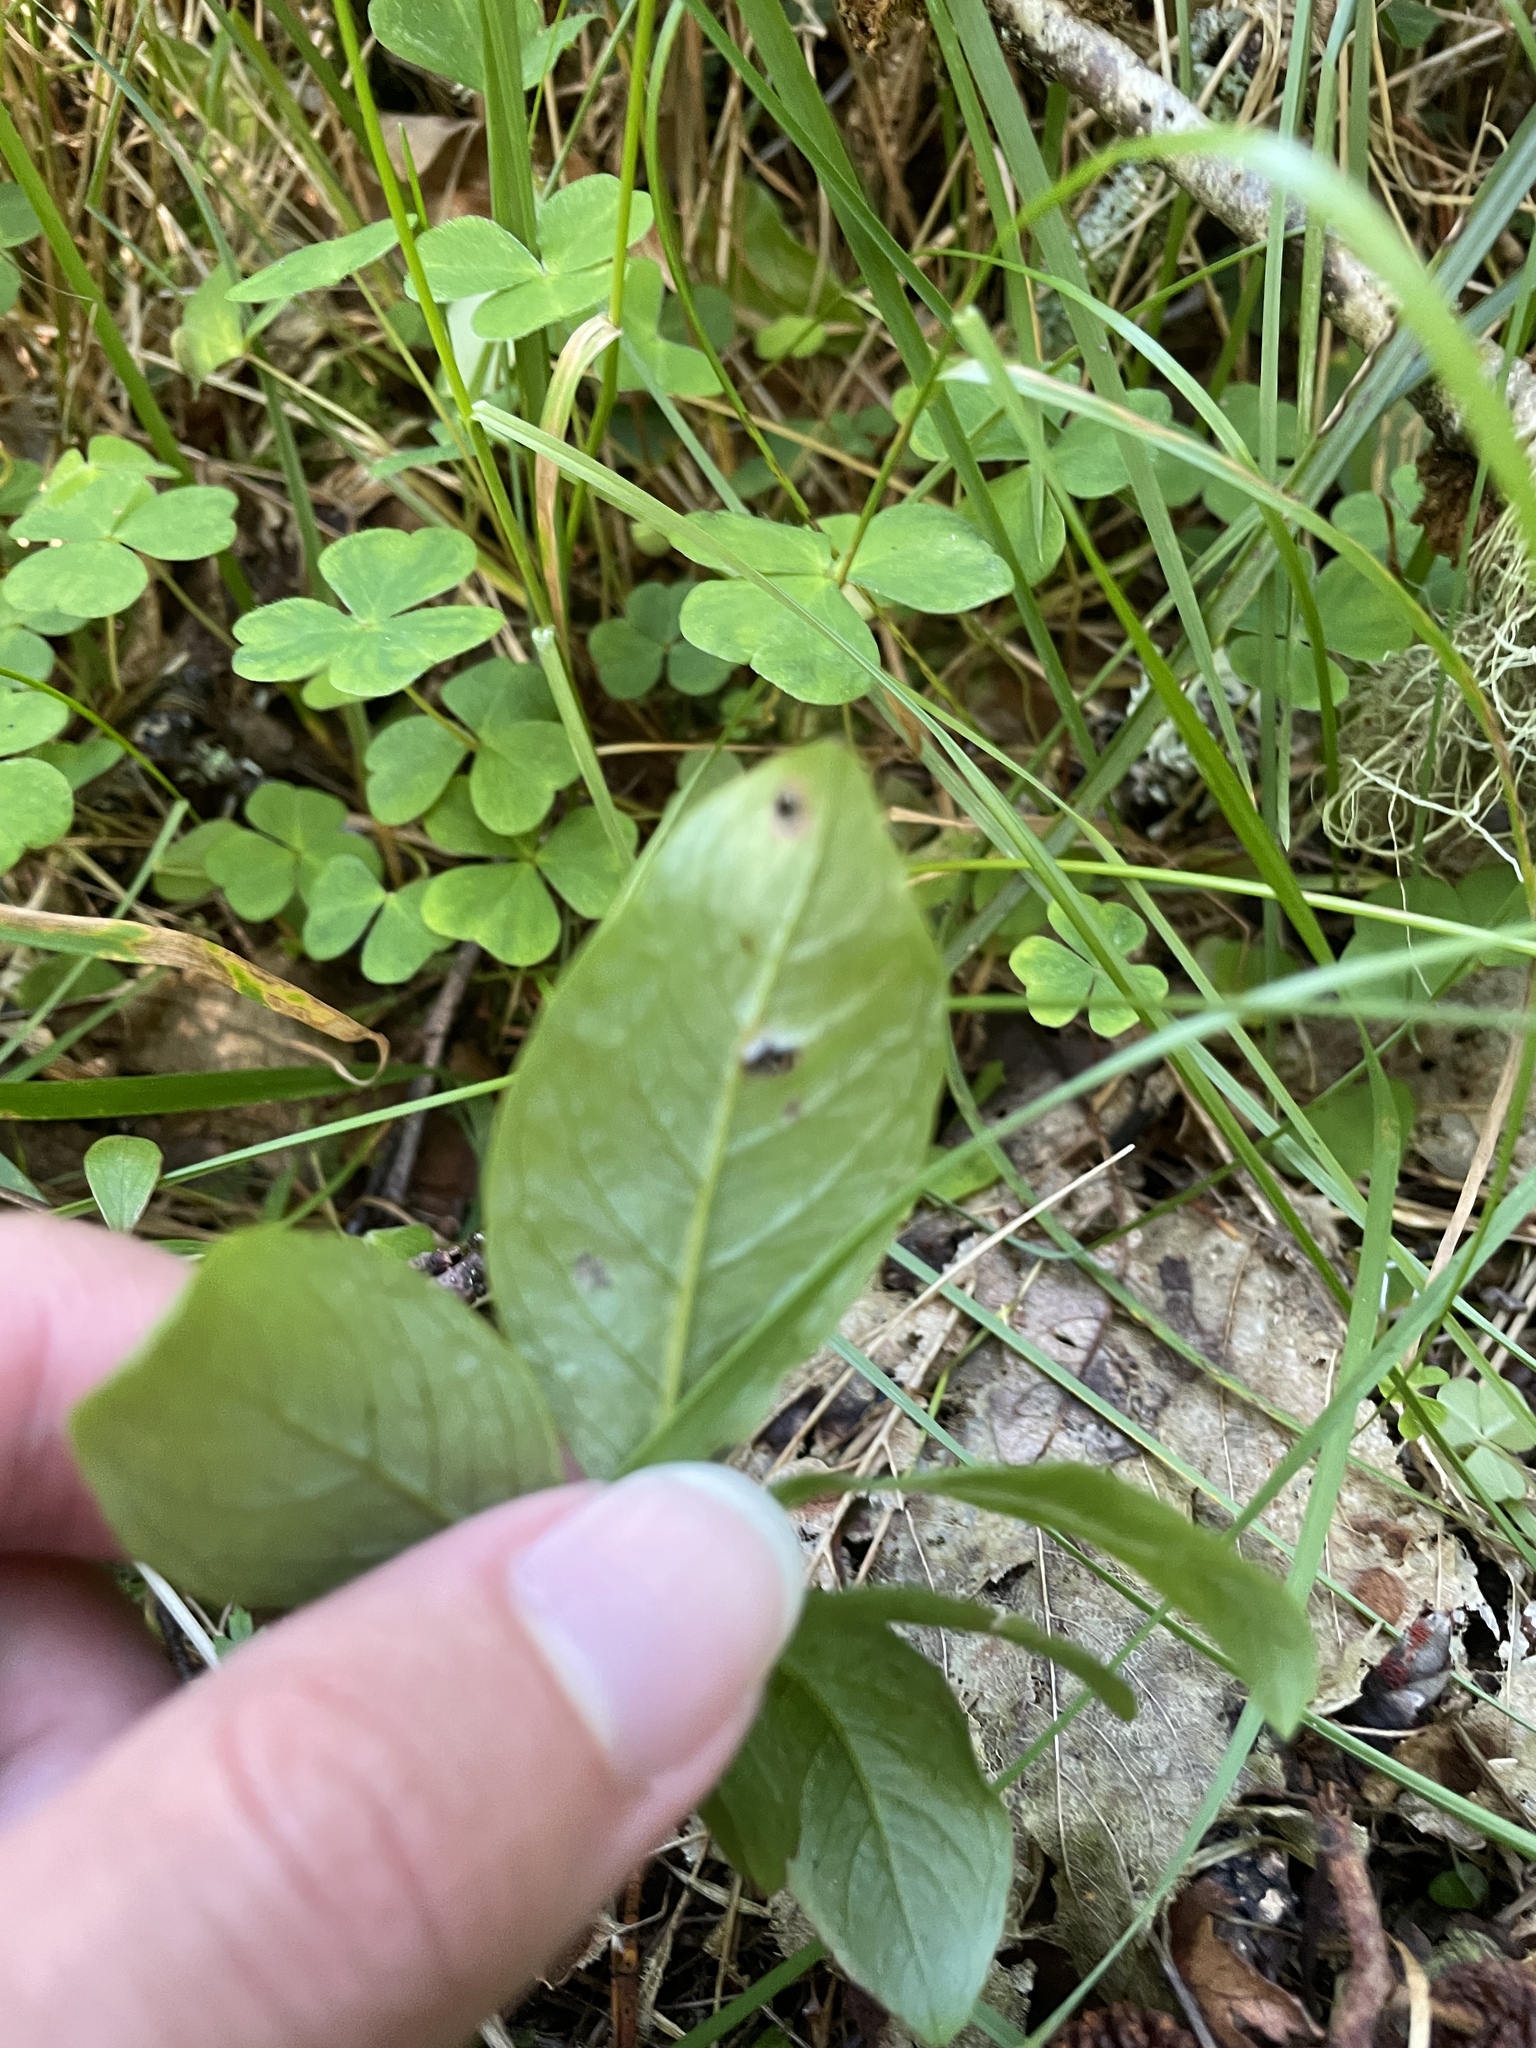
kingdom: Plantae
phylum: Tracheophyta
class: Magnoliopsida
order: Ericales
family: Primulaceae
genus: Lysimachia
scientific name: Lysimachia europaea
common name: Arctic starflower
